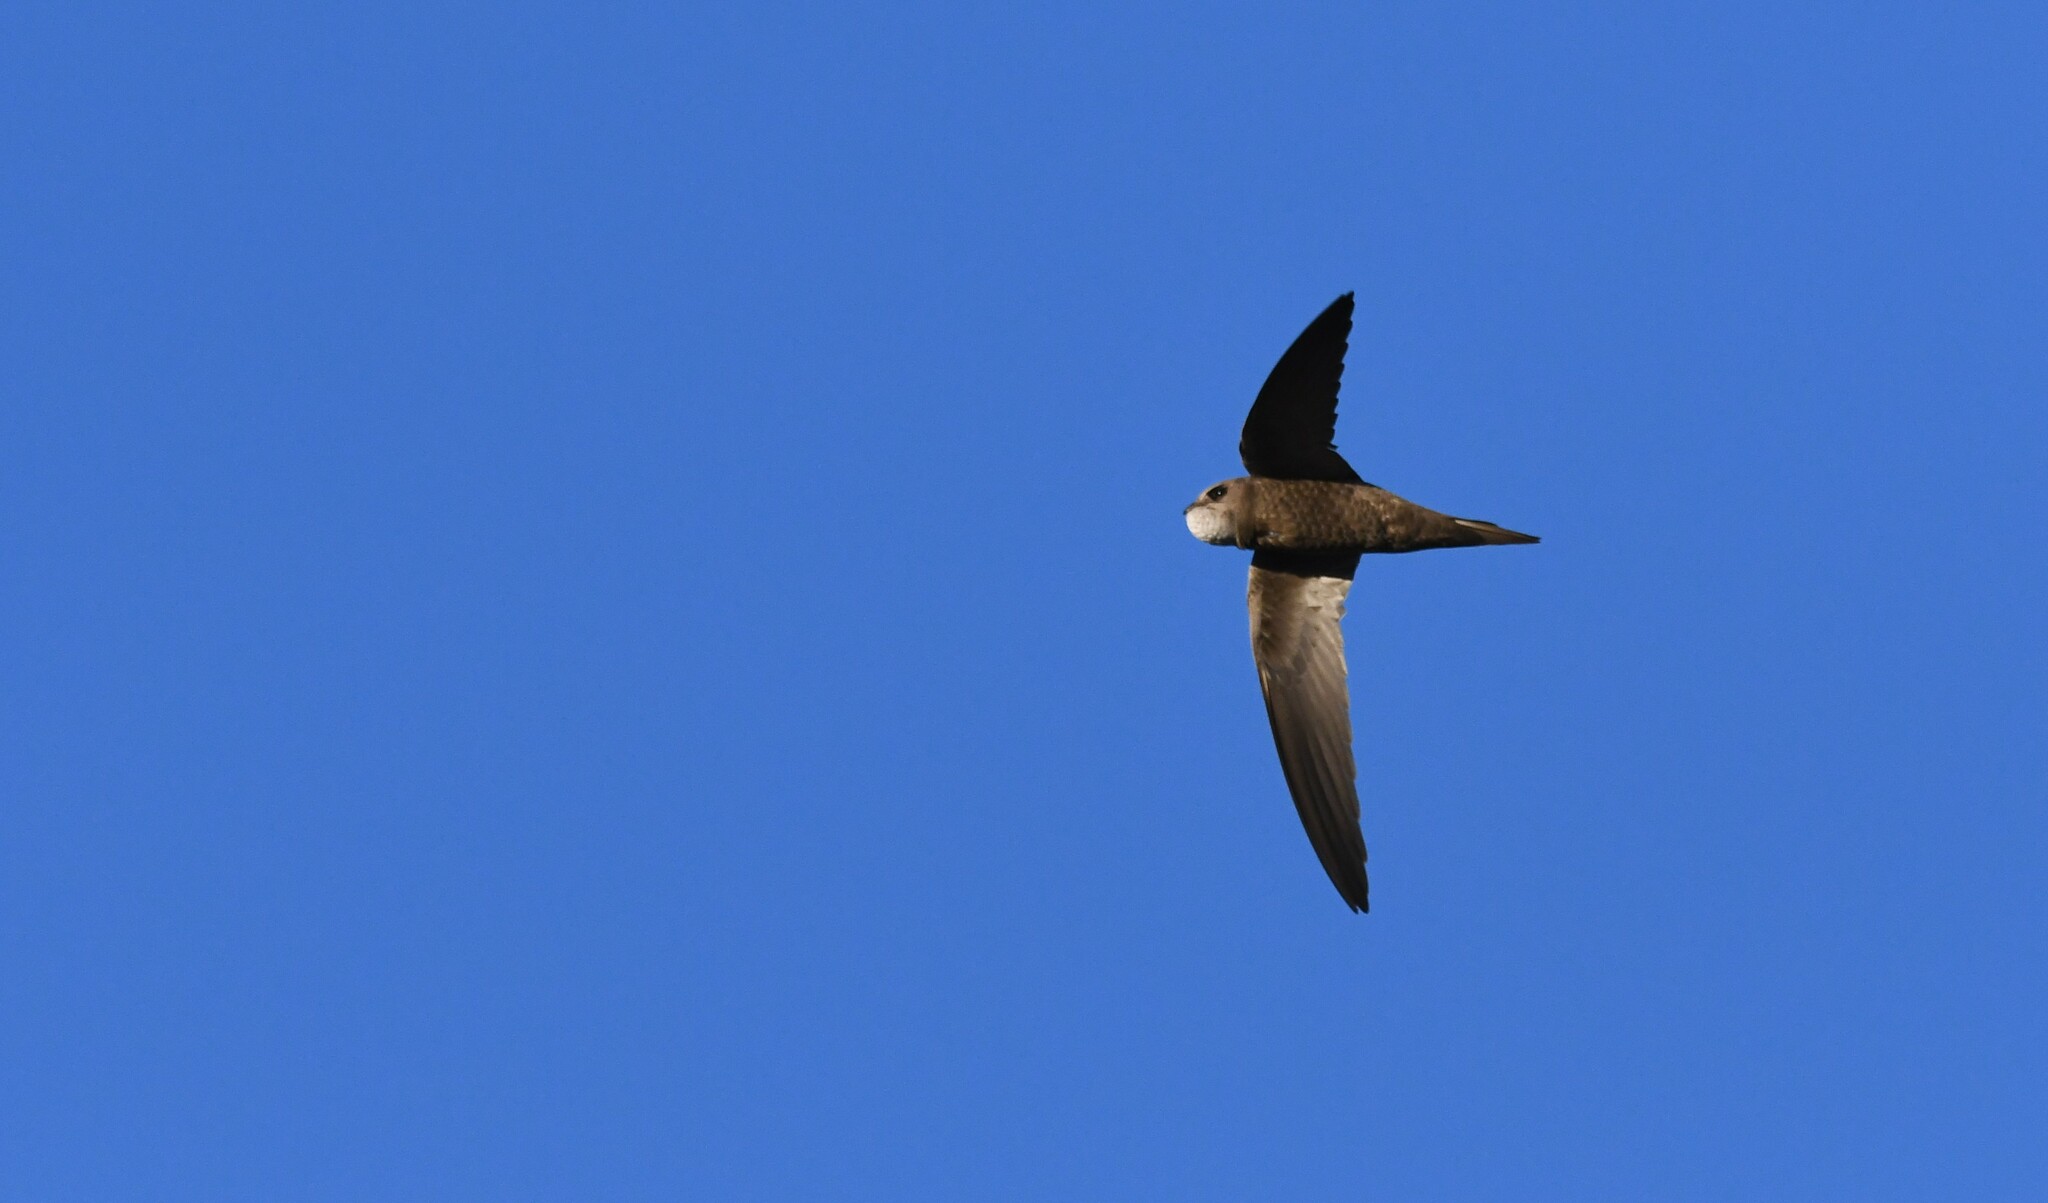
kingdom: Animalia
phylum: Chordata
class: Aves
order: Apodiformes
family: Apodidae
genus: Apus
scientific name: Apus pallidus
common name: Pallid swift
